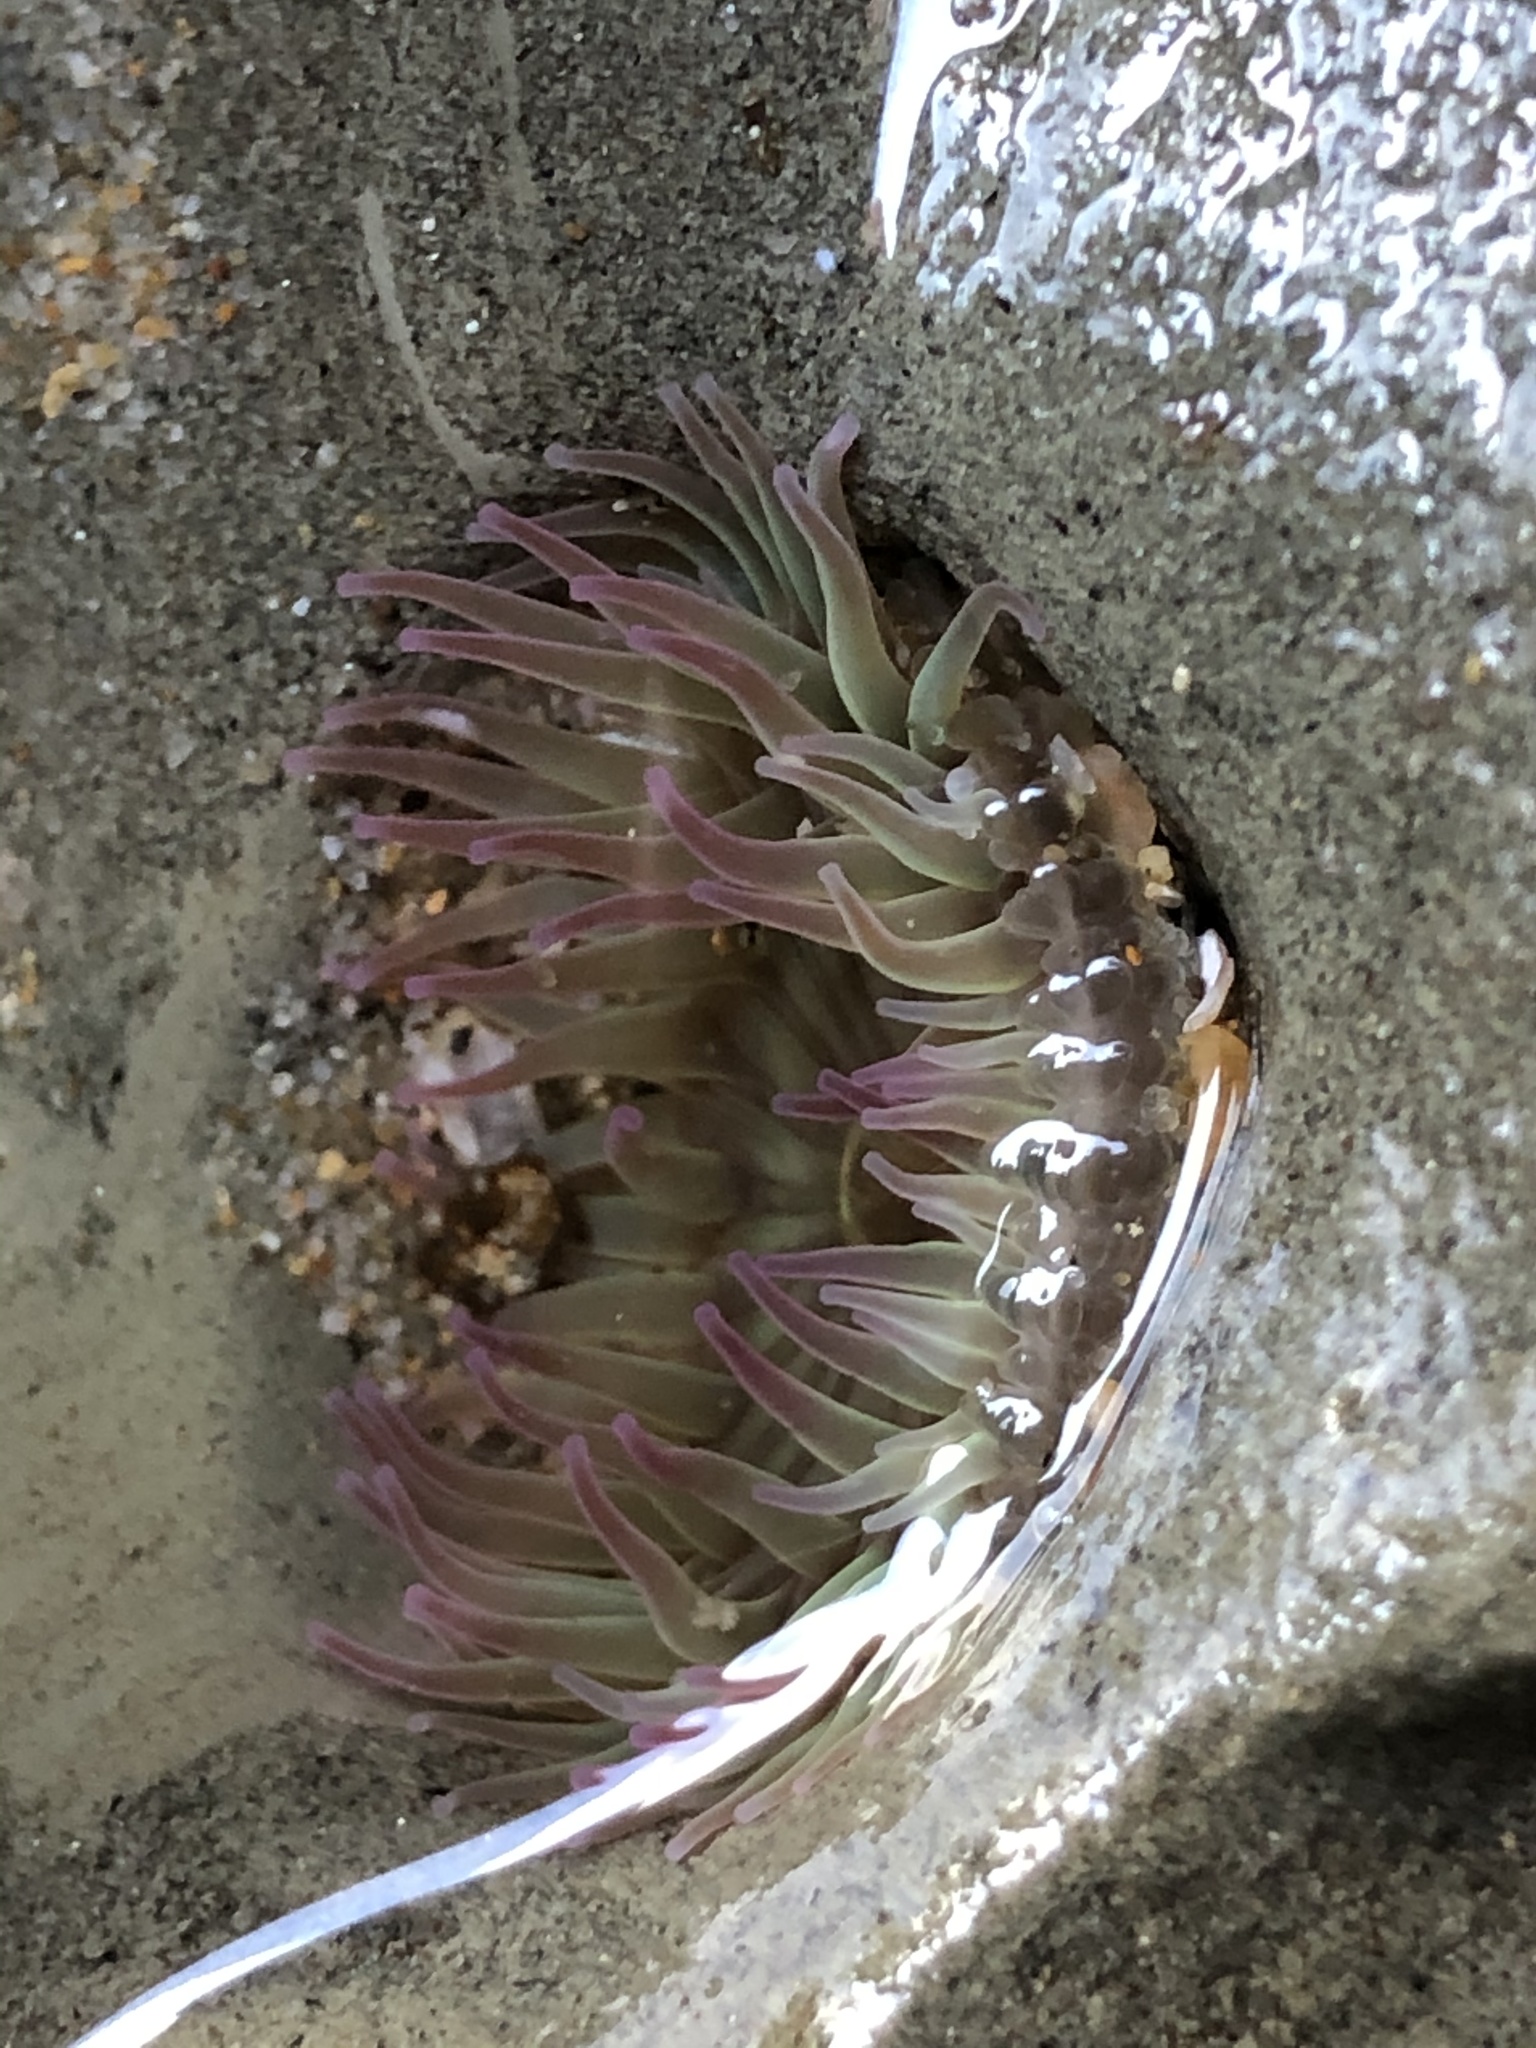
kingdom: Animalia
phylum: Cnidaria
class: Anthozoa
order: Actiniaria
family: Actiniidae
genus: Anthopleura
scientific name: Anthopleura elegantissima
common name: Clonal anemone
